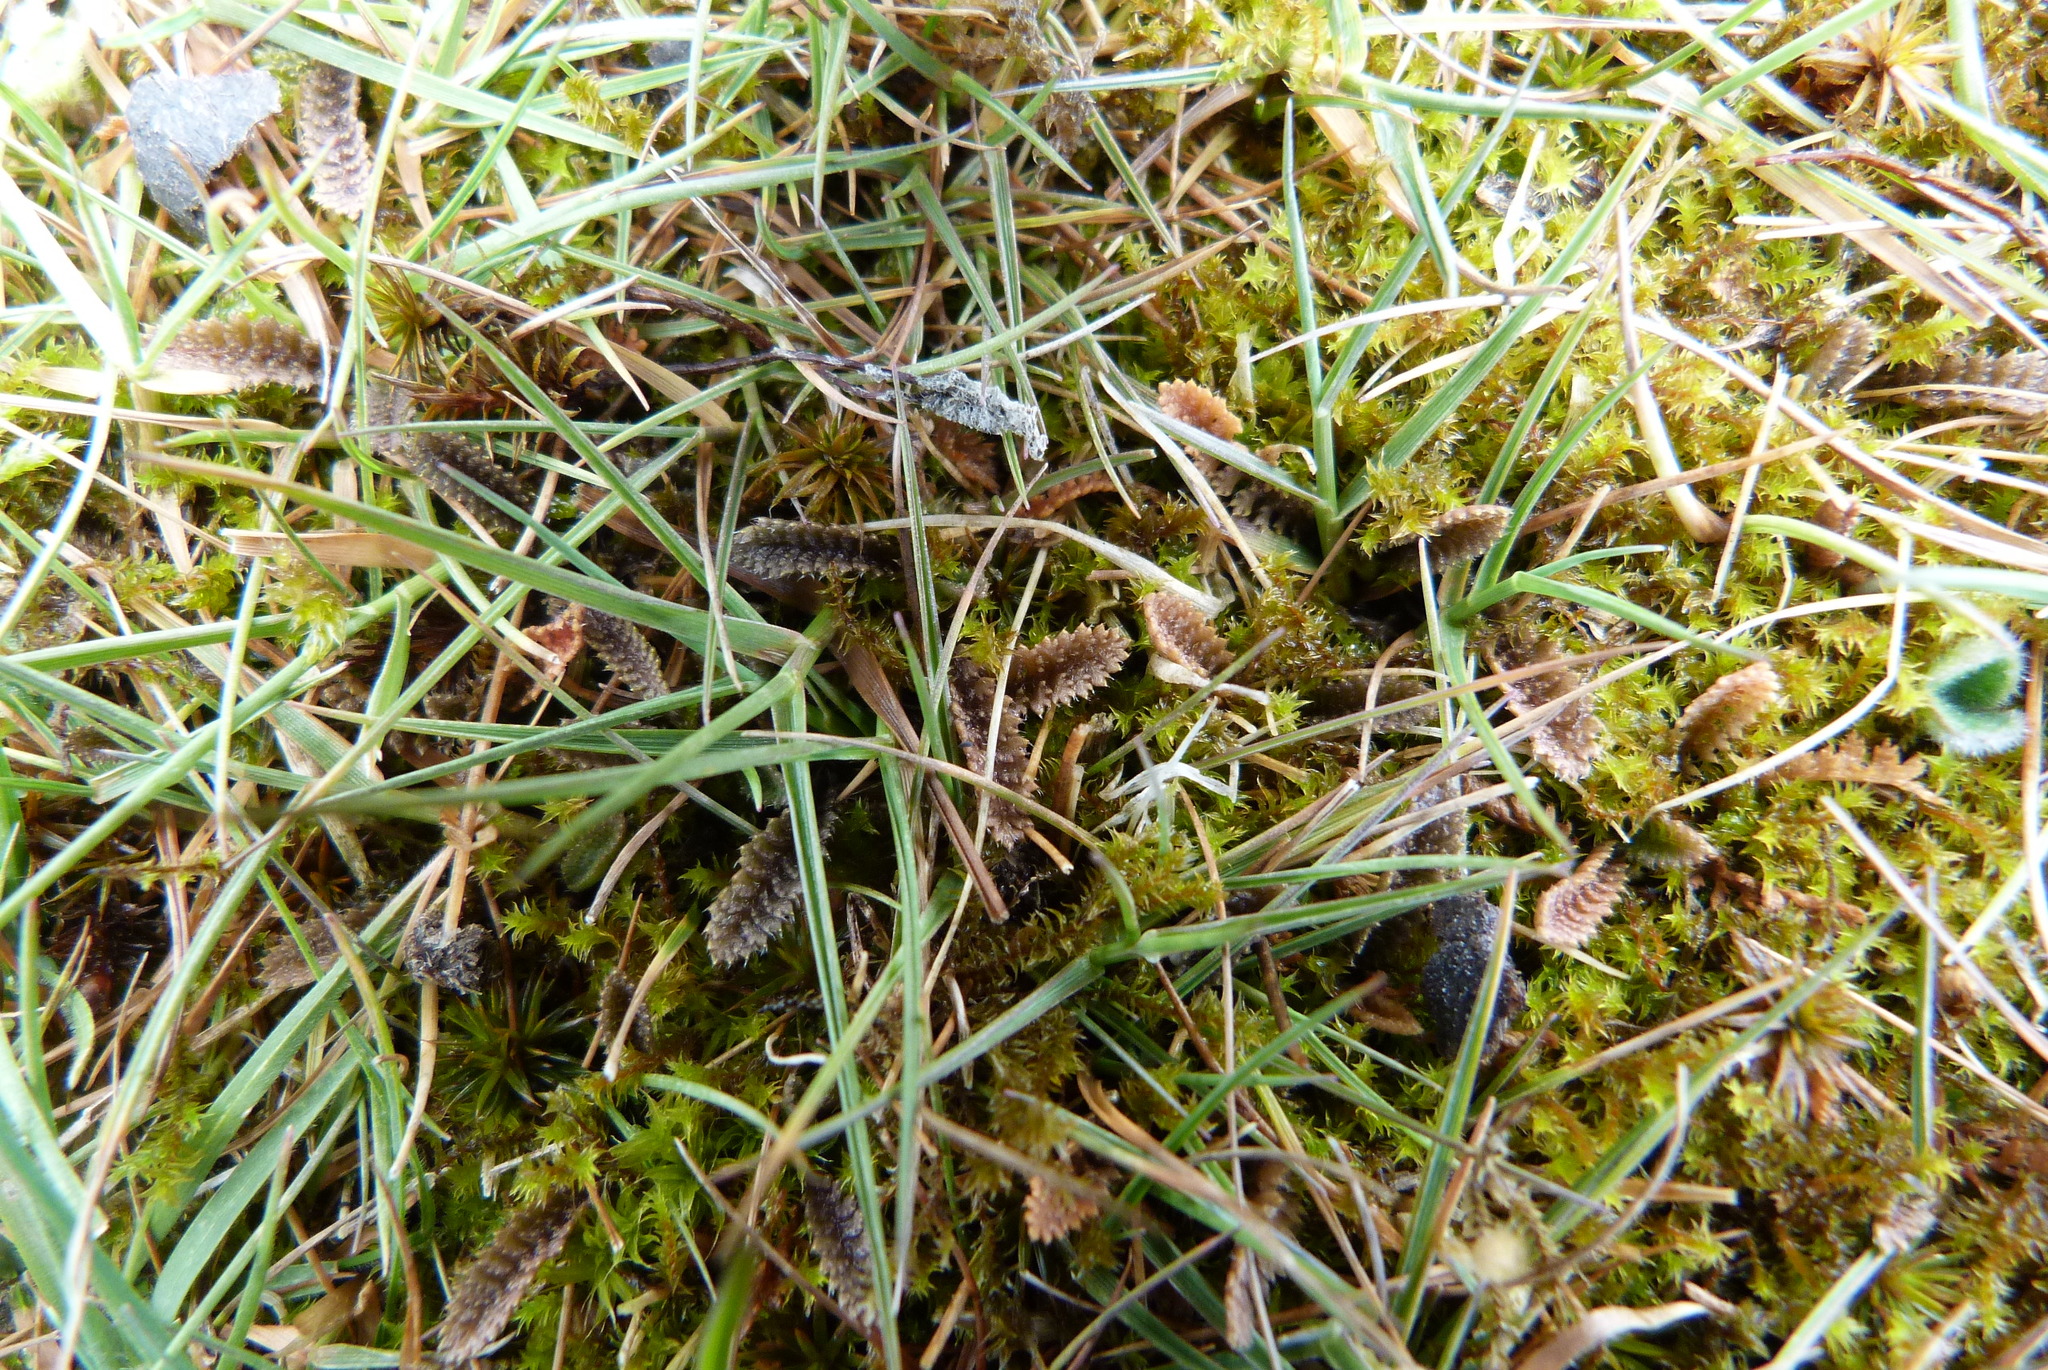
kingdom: Plantae
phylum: Tracheophyta
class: Magnoliopsida
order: Asterales
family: Asteraceae
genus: Leptinella
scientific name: Leptinella serrulata
